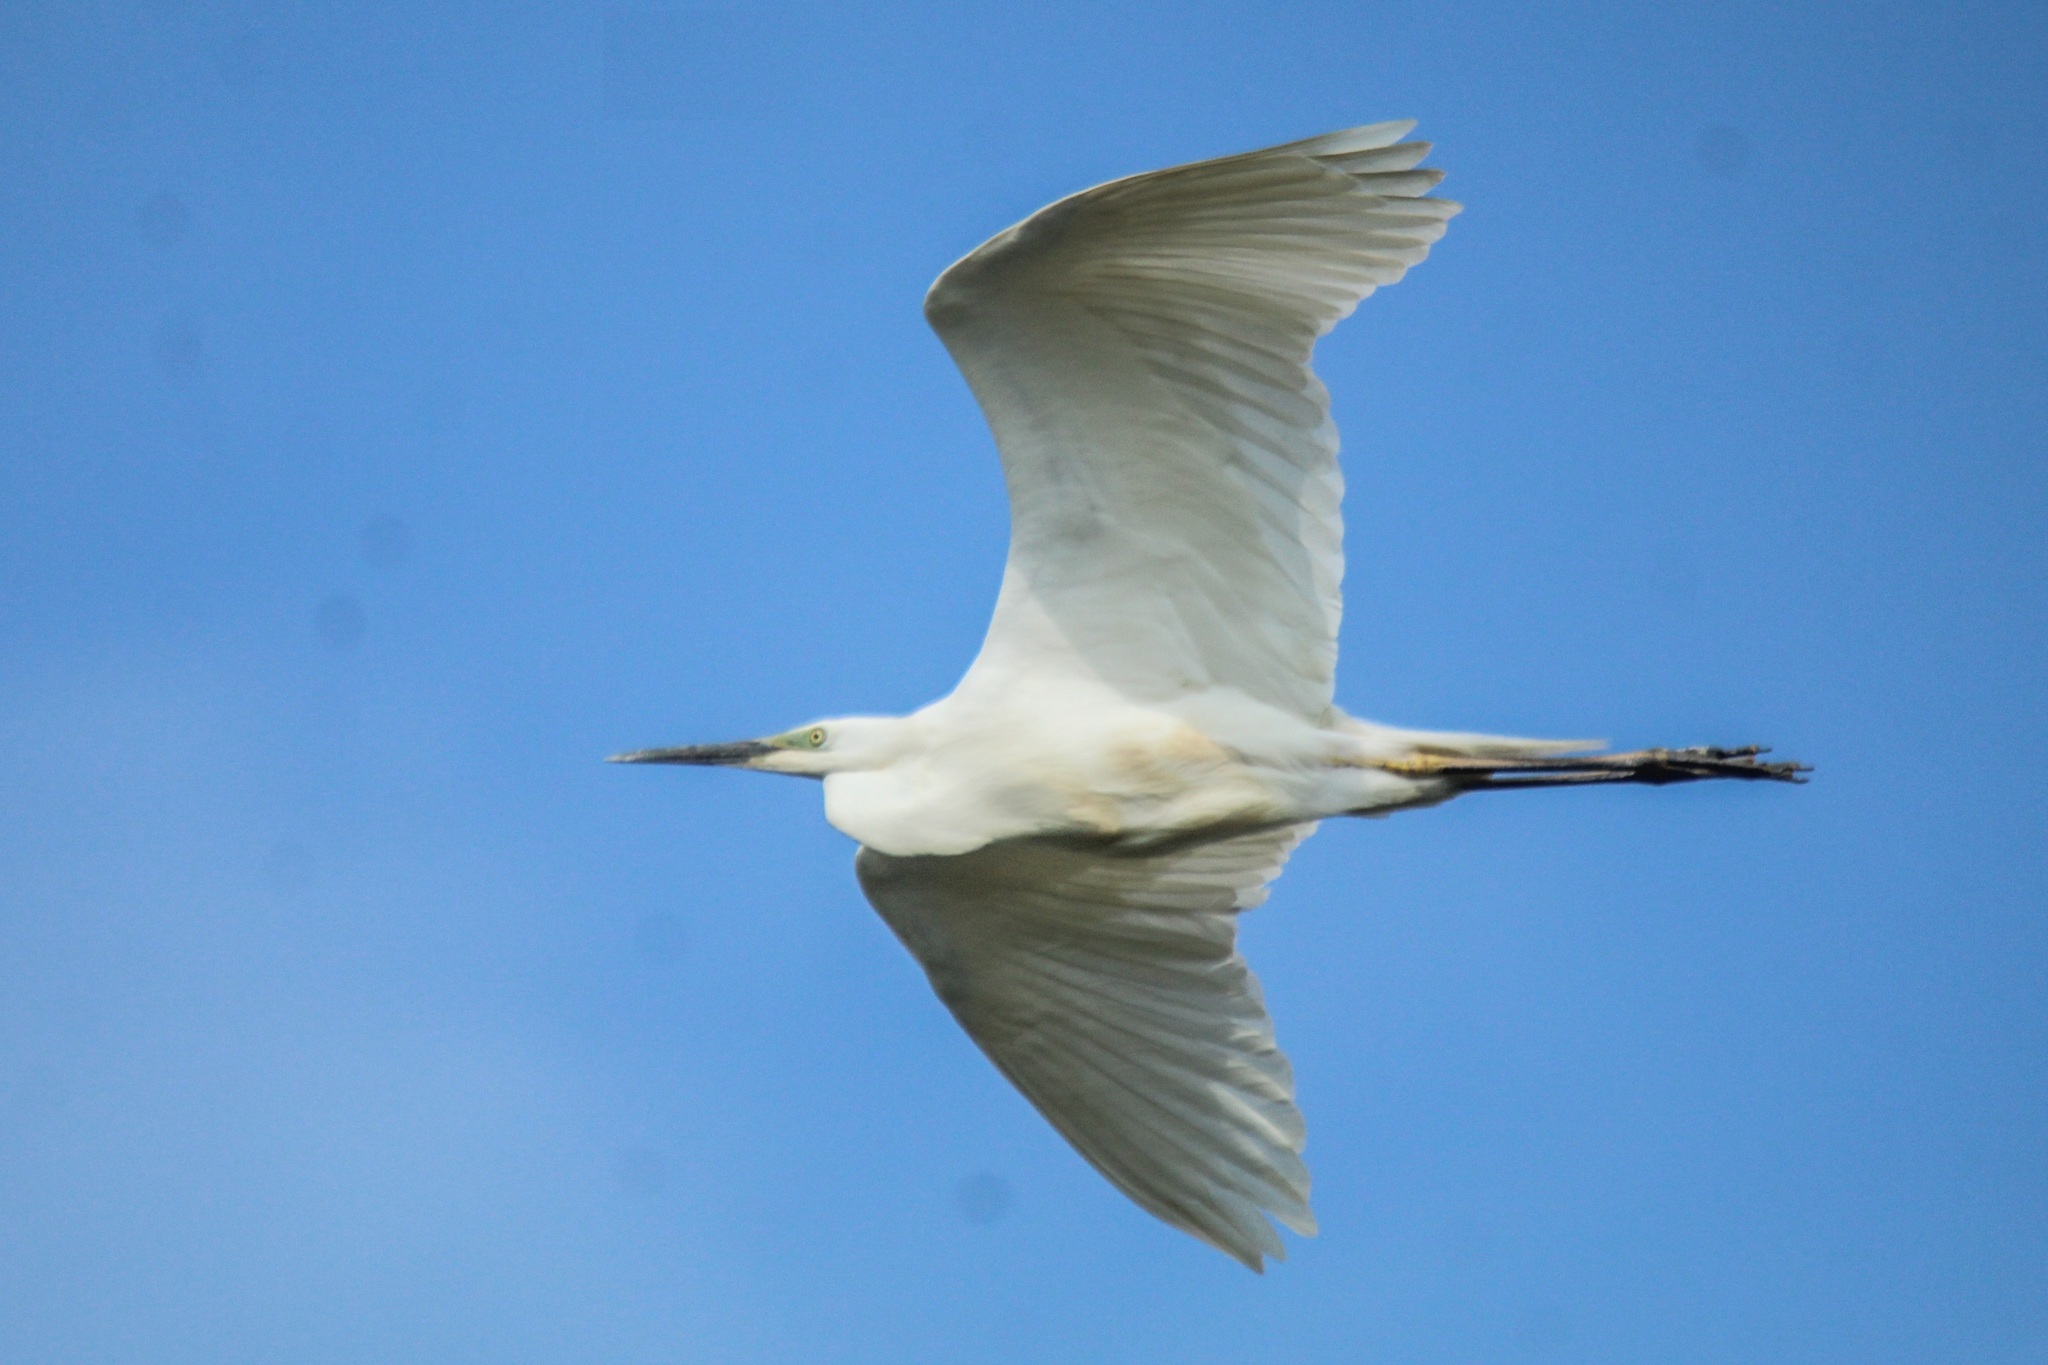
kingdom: Animalia
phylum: Chordata
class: Aves
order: Pelecaniformes
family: Ardeidae
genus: Ardea
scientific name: Ardea alba
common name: Great egret
